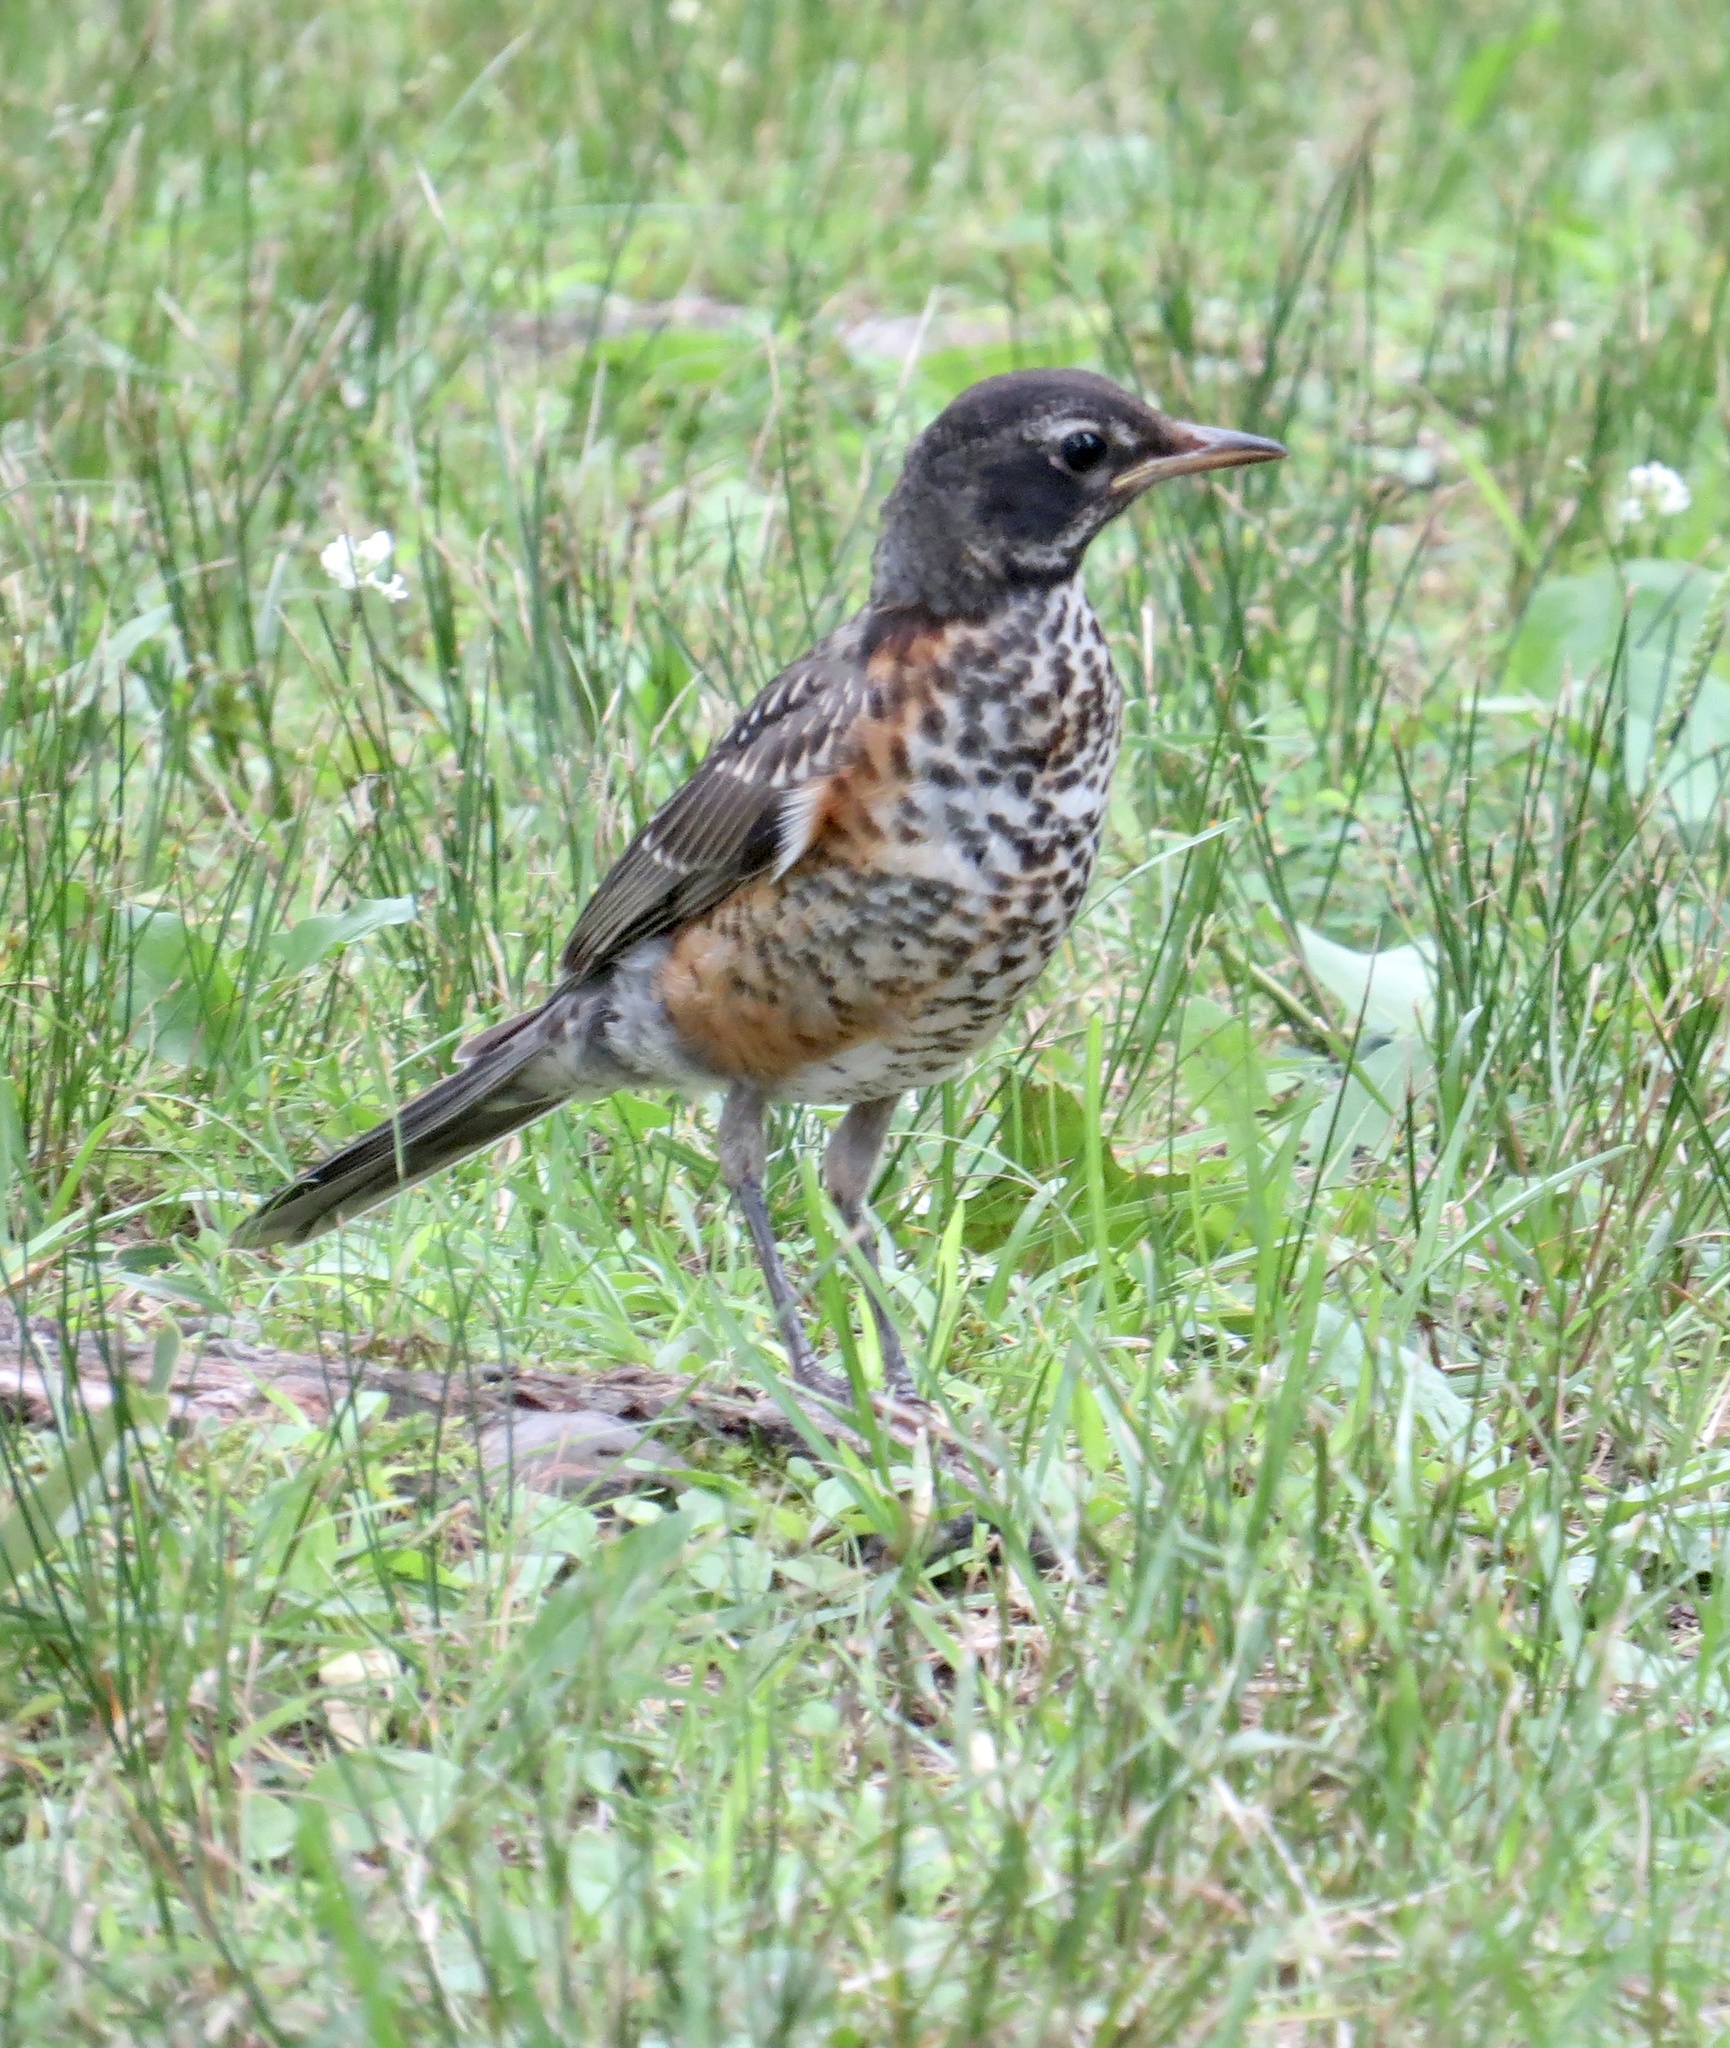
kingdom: Animalia
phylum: Chordata
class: Aves
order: Passeriformes
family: Turdidae
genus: Turdus
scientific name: Turdus migratorius
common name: American robin
